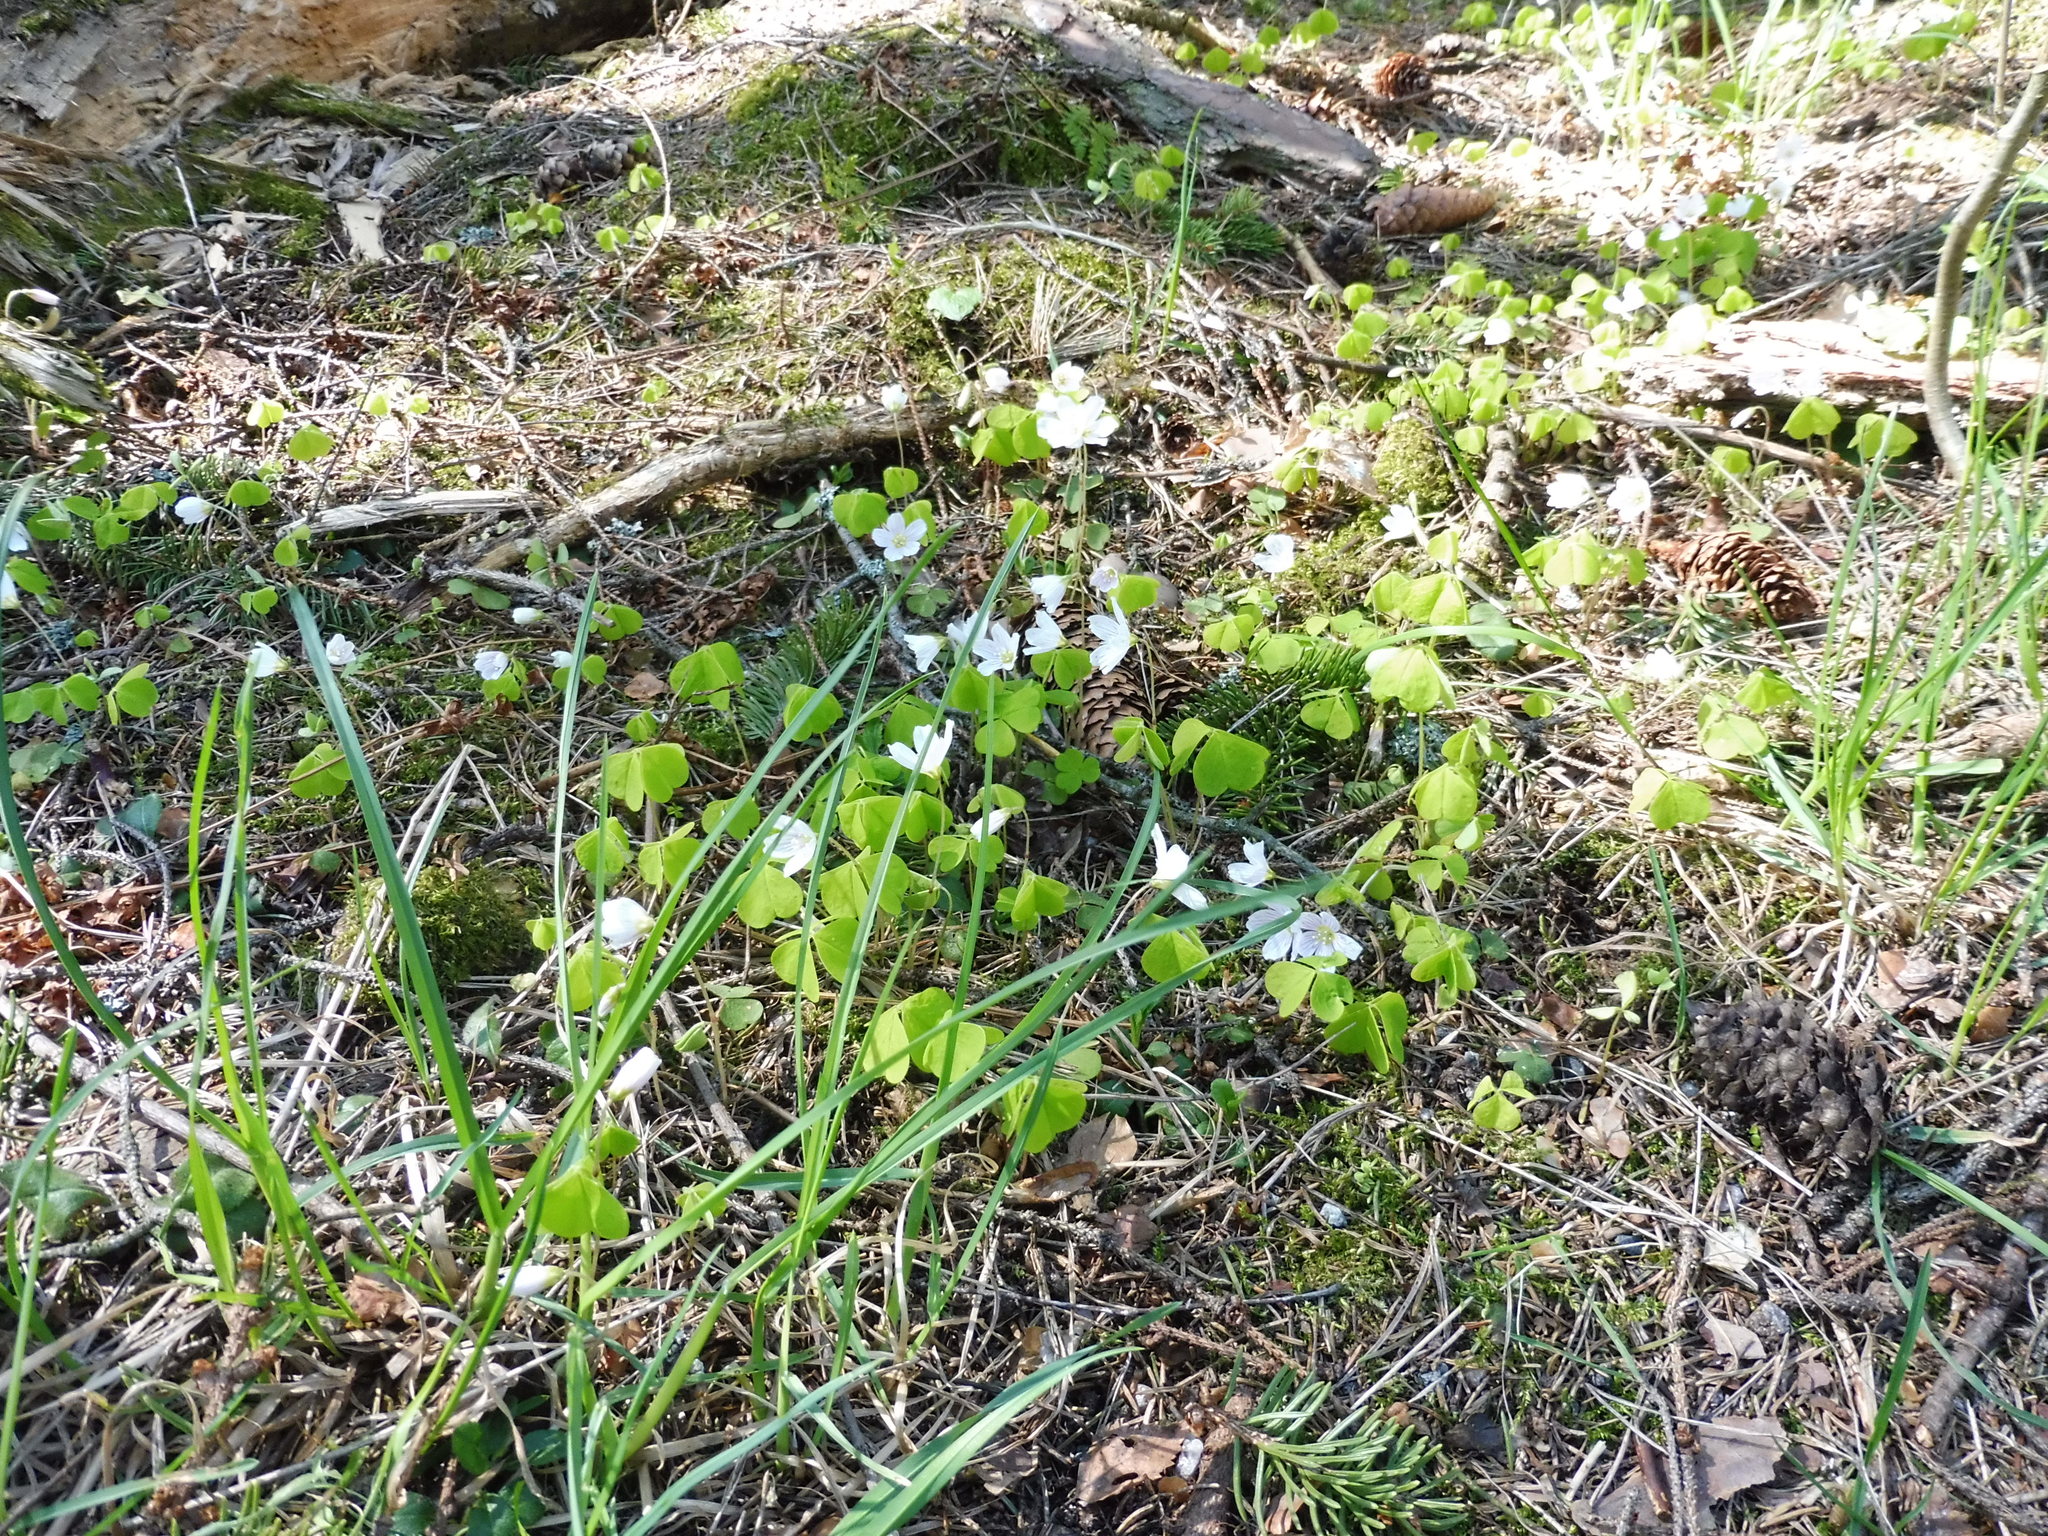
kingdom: Plantae
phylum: Tracheophyta
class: Magnoliopsida
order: Oxalidales
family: Oxalidaceae
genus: Oxalis
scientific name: Oxalis acetosella
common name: Wood-sorrel
